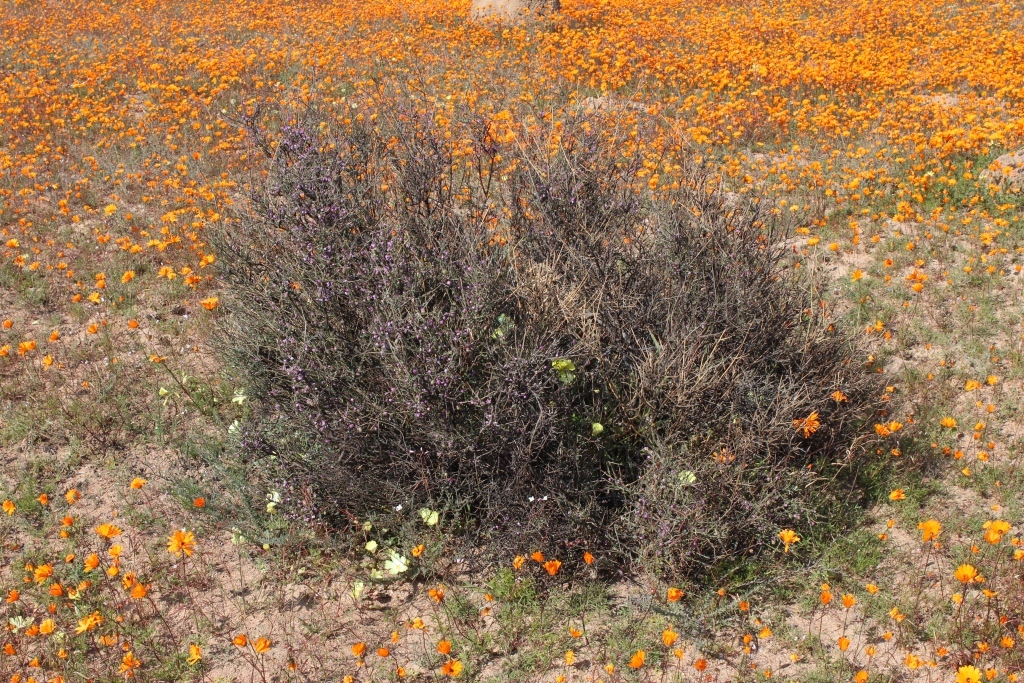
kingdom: Plantae
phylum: Tracheophyta
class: Magnoliopsida
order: Fabales
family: Polygalaceae
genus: Muraltia
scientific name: Muraltia spinosa
